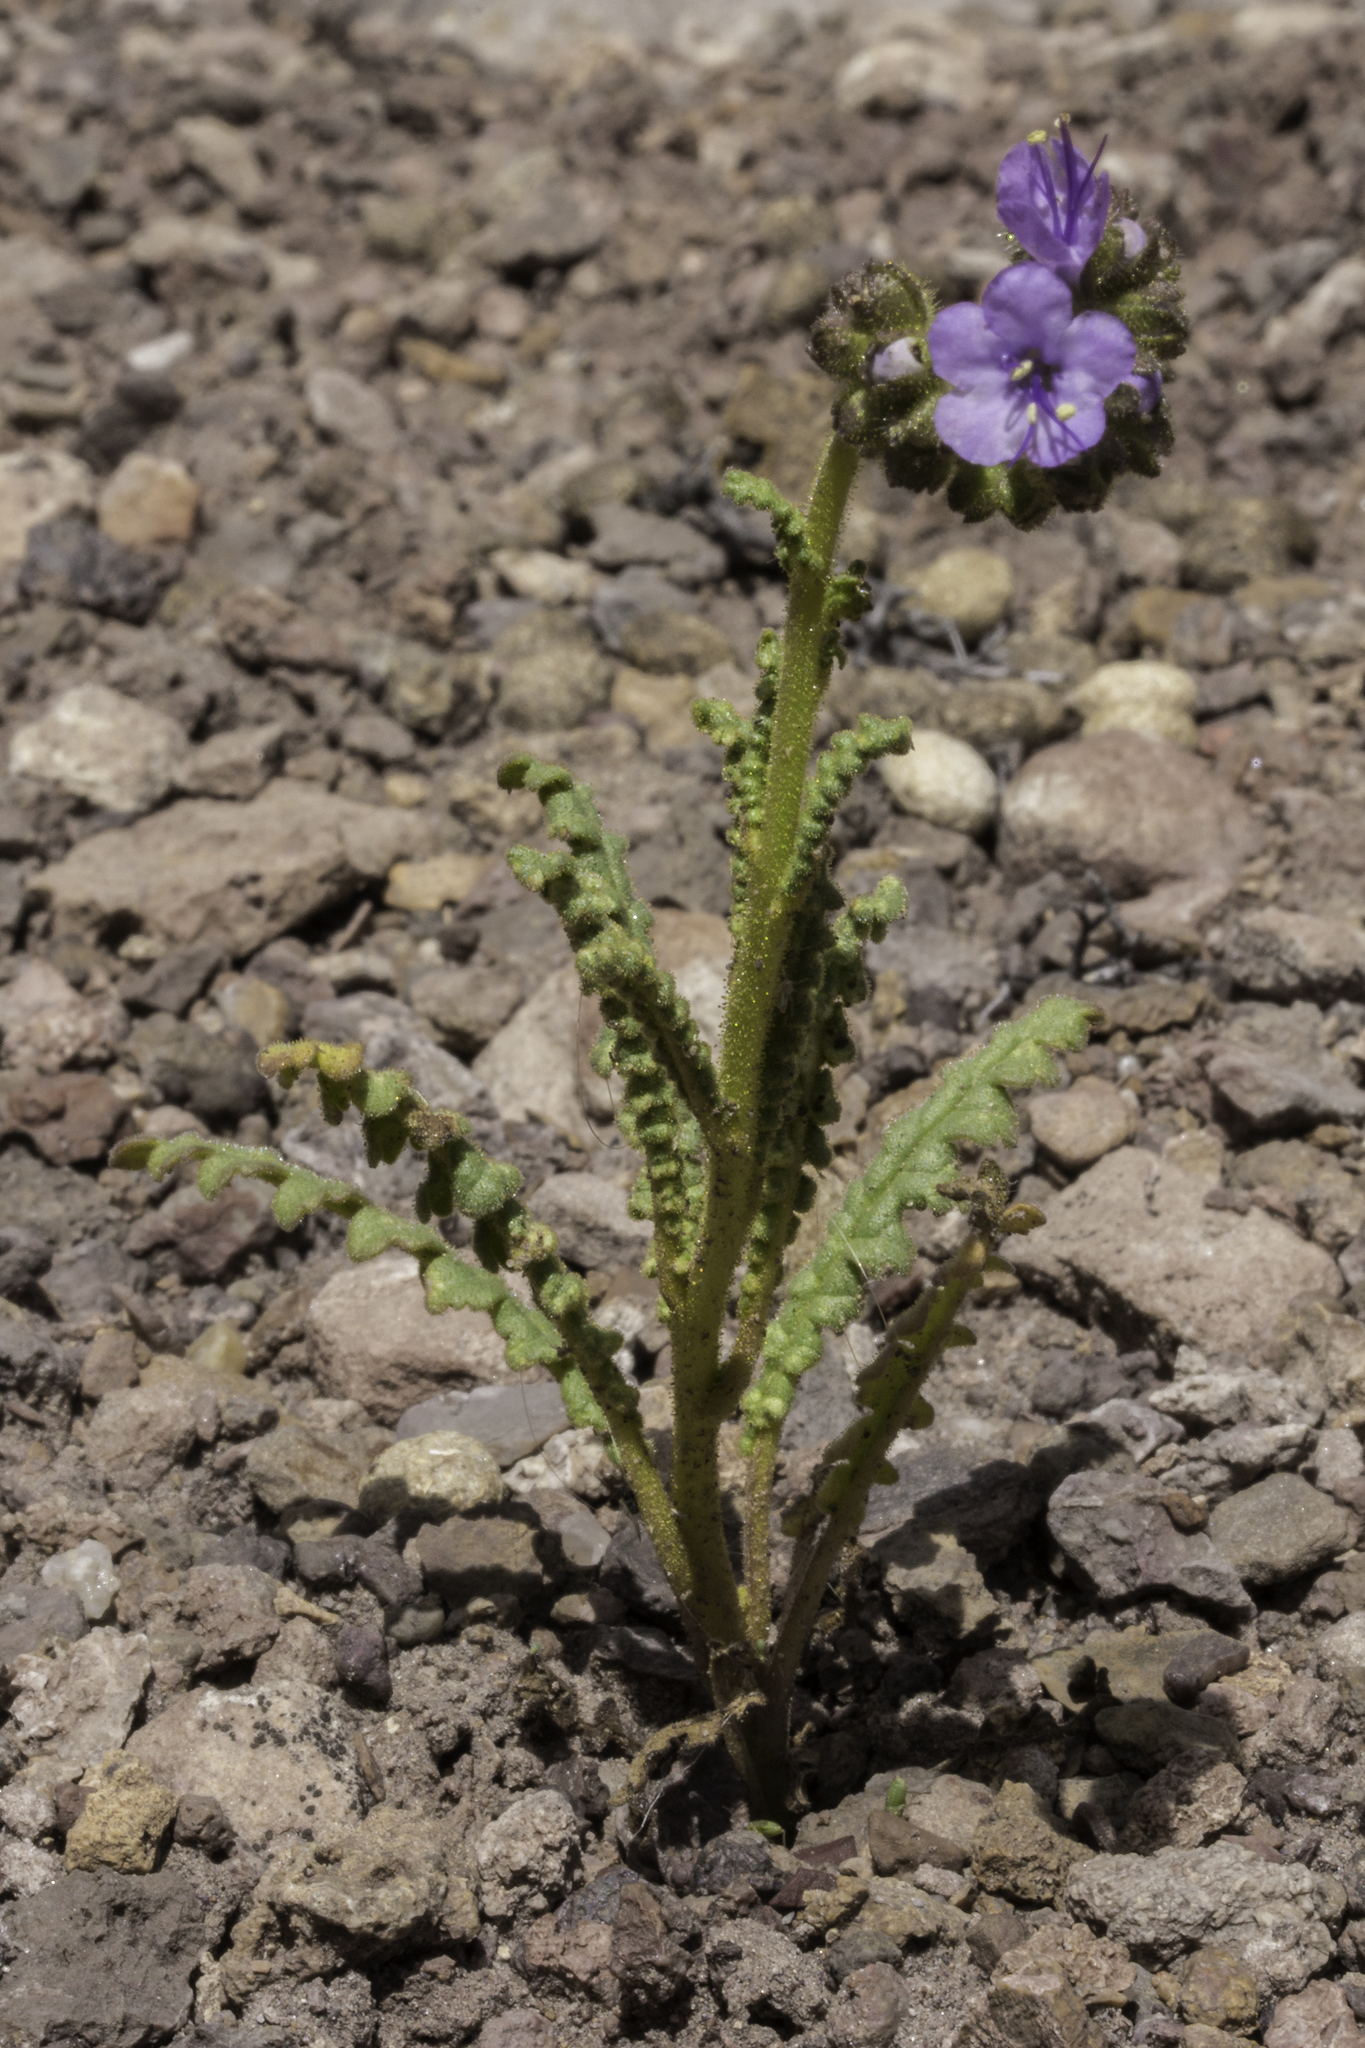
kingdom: Plantae
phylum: Tracheophyta
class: Magnoliopsida
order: Boraginales
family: Hydrophyllaceae
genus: Phacelia
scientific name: Phacelia crenulata
